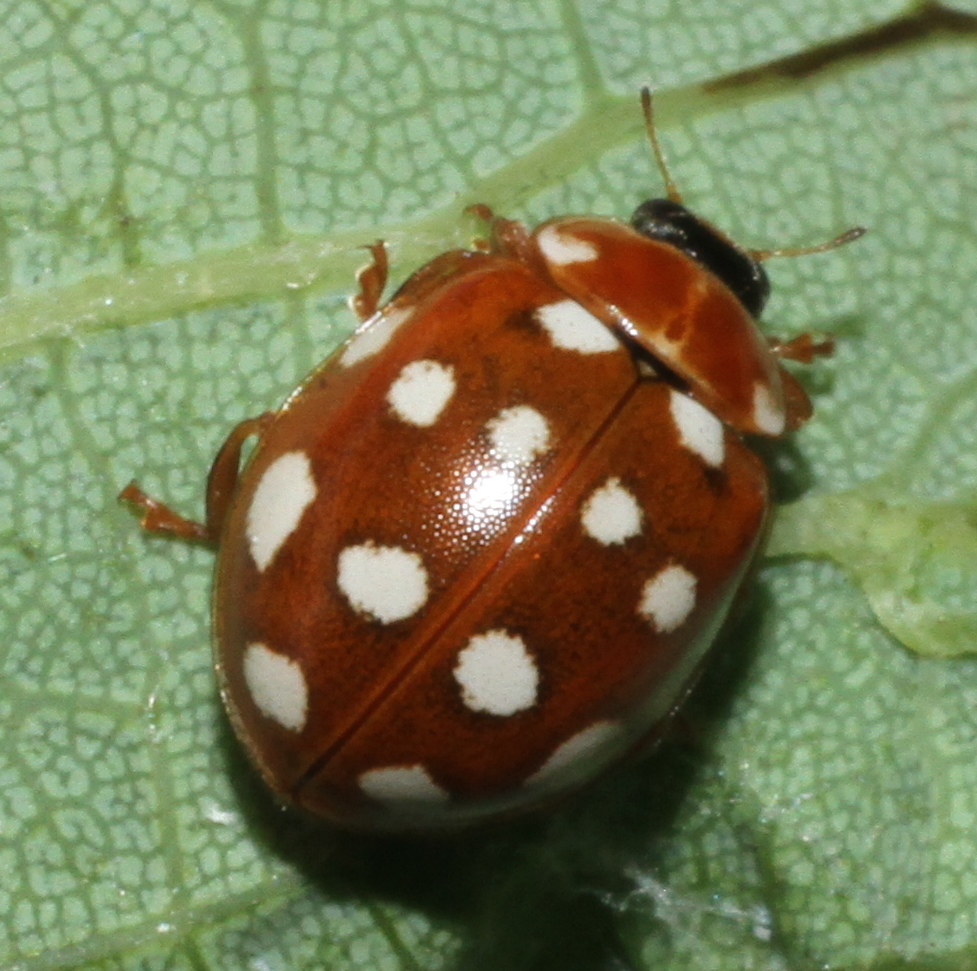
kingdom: Animalia
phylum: Arthropoda
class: Insecta
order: Coleoptera
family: Coccinellidae
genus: Calvia
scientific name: Calvia quatuordecimguttata
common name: Cream-spot ladybird
